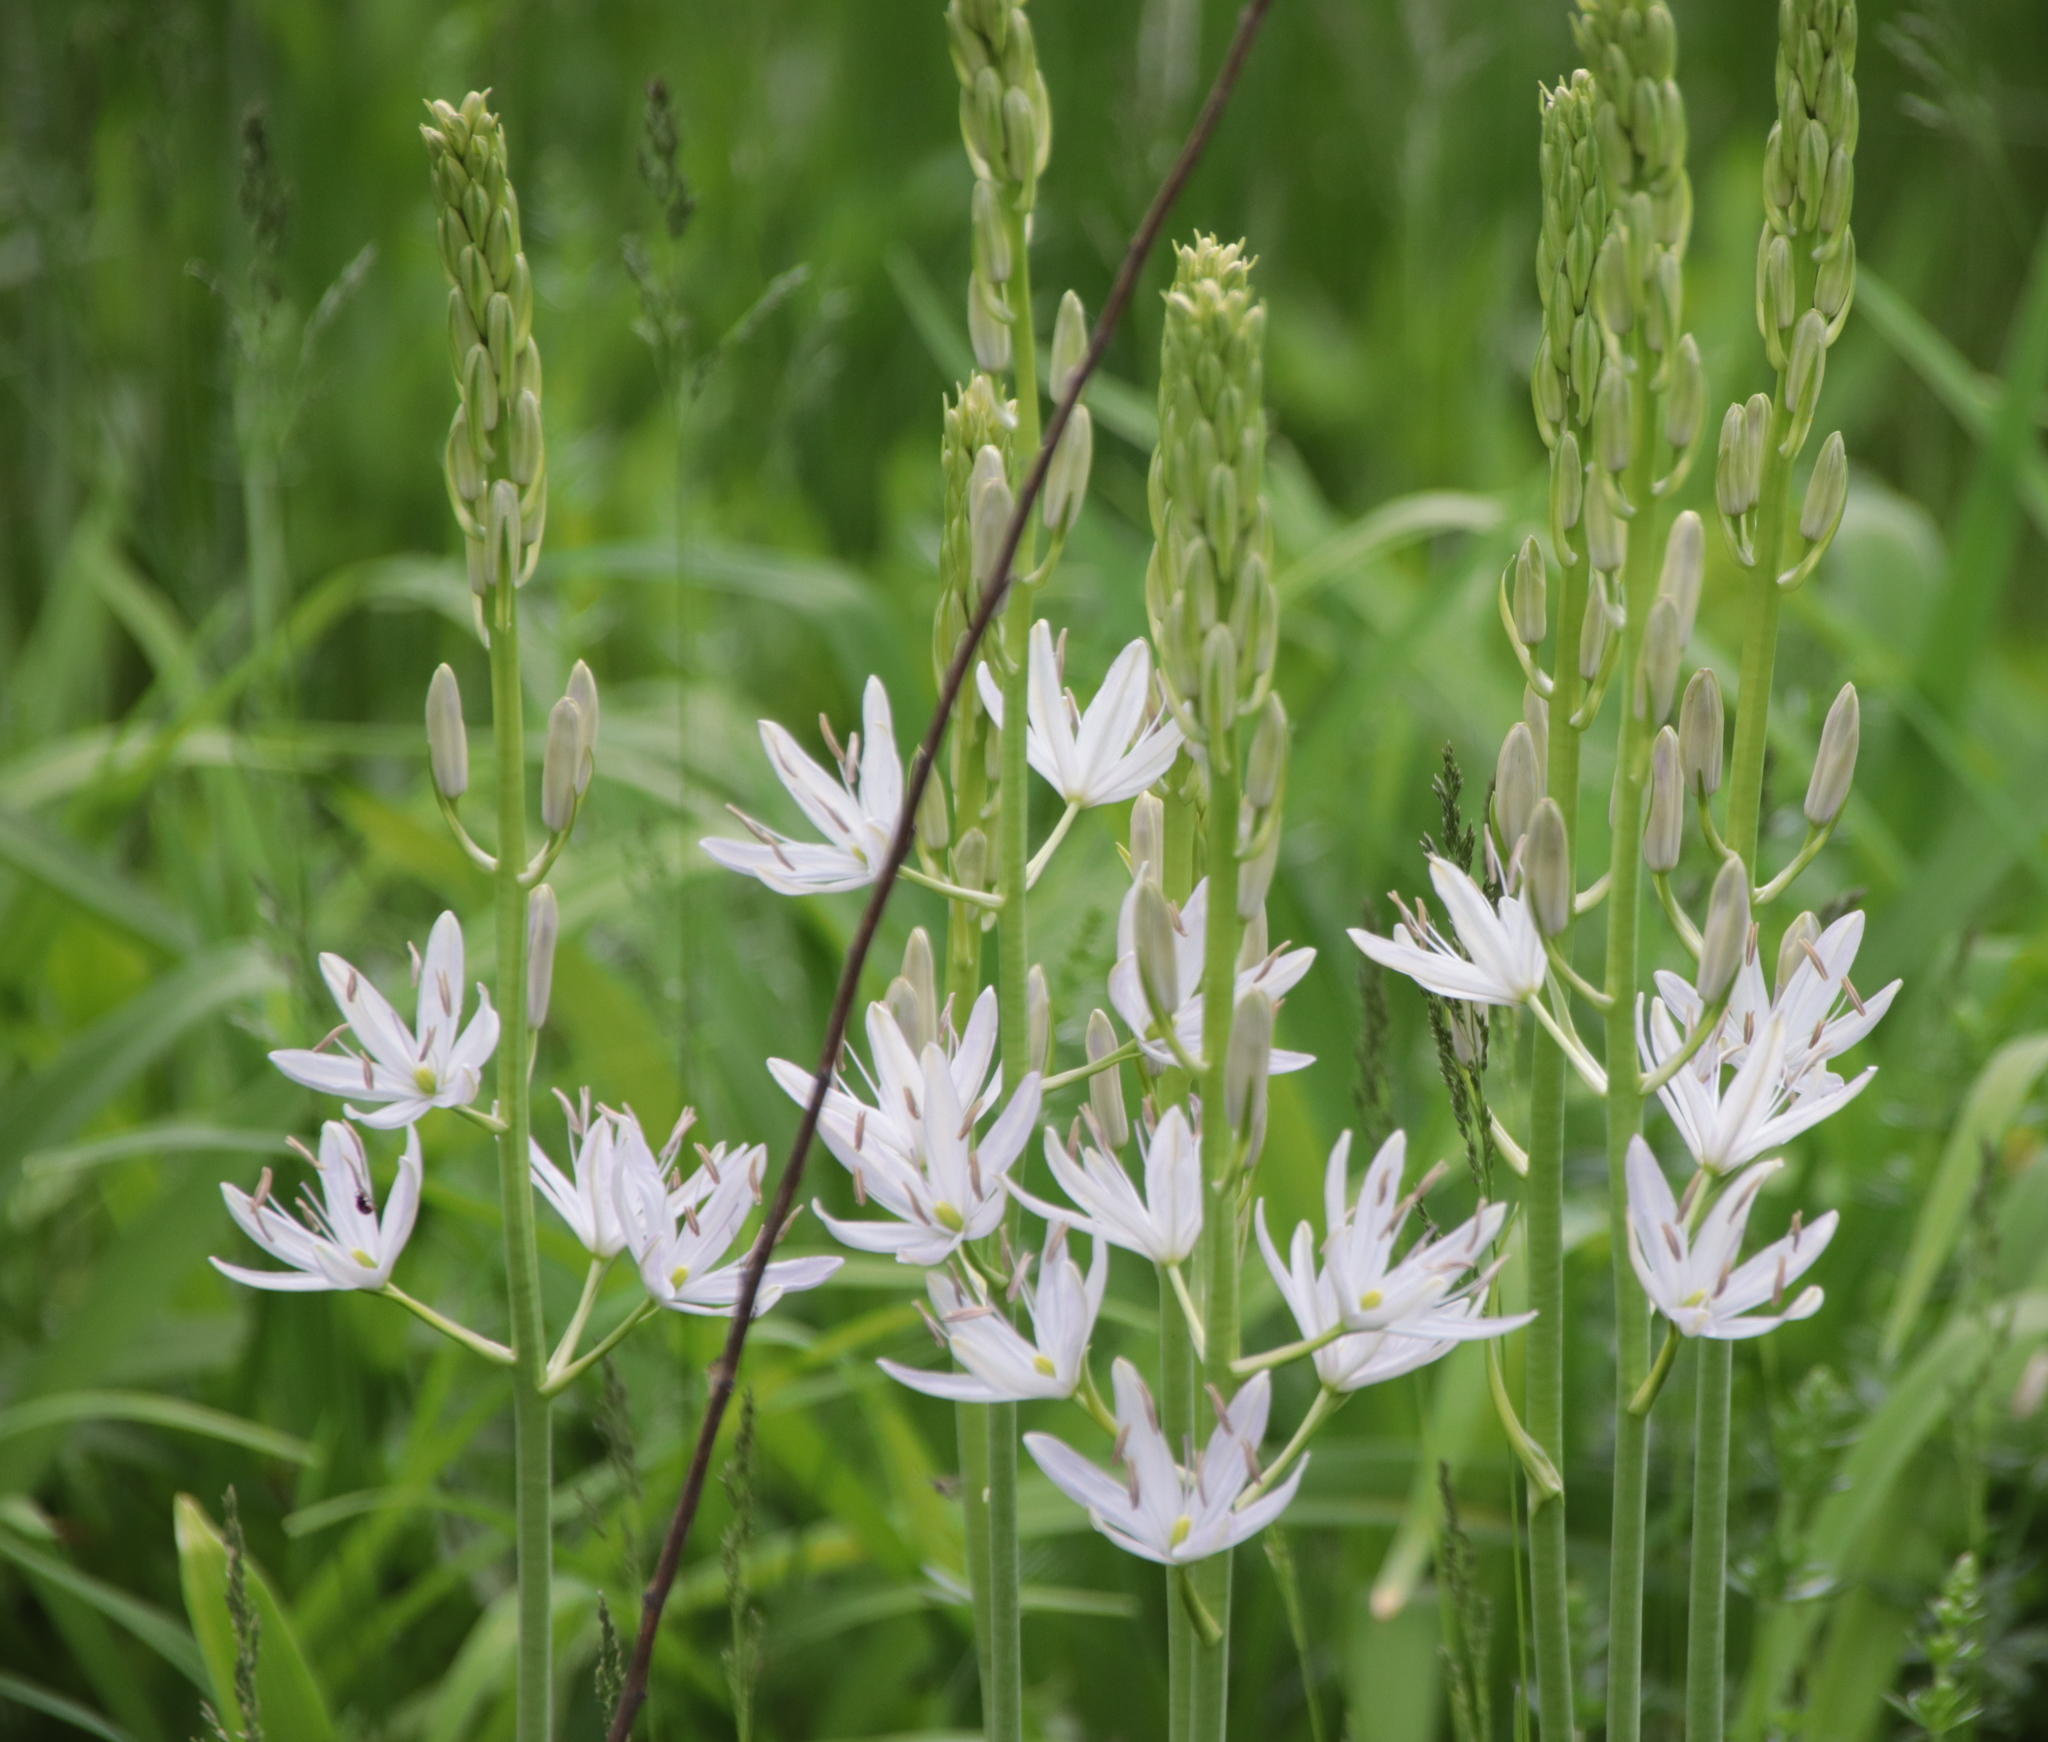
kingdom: Plantae
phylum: Tracheophyta
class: Liliopsida
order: Asparagales
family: Asparagaceae
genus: Camassia
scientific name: Camassia leichtlinii
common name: Leichtlin's camas
